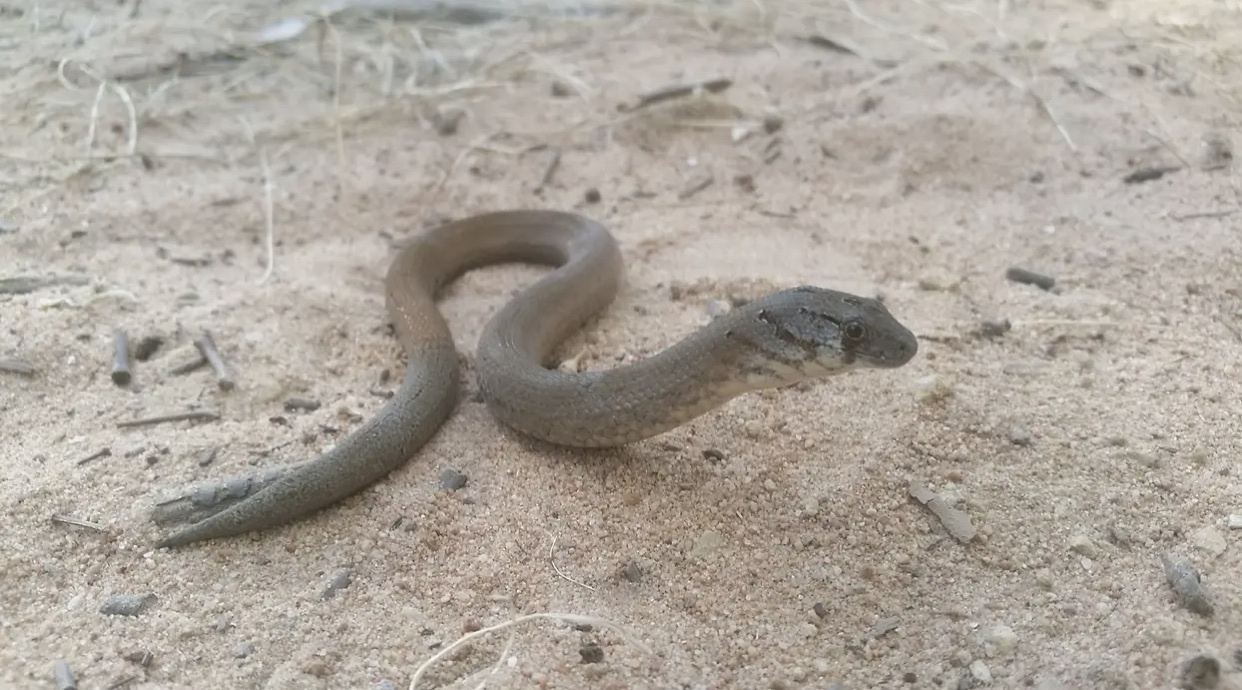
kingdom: Animalia
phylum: Chordata
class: Squamata
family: Pygopodidae
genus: Pygopus
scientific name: Pygopus lepidopodus
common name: Southern scaly-foot
